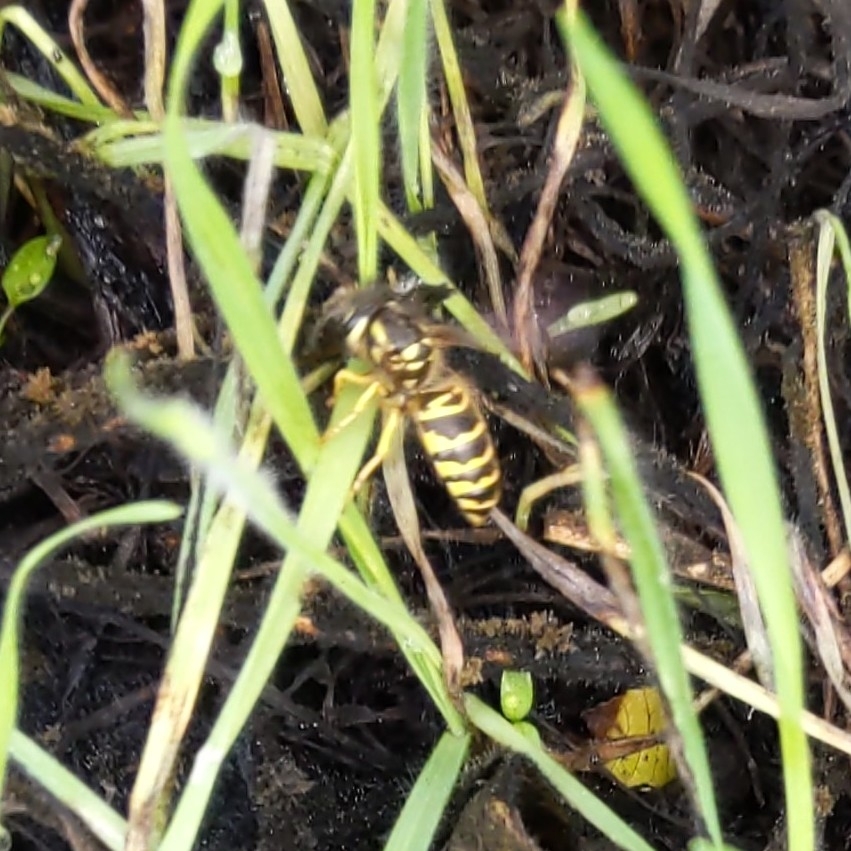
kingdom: Animalia
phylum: Arthropoda
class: Insecta
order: Hymenoptera
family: Vespidae
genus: Vespula
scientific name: Vespula maculifrons
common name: Eastern yellowjacket
